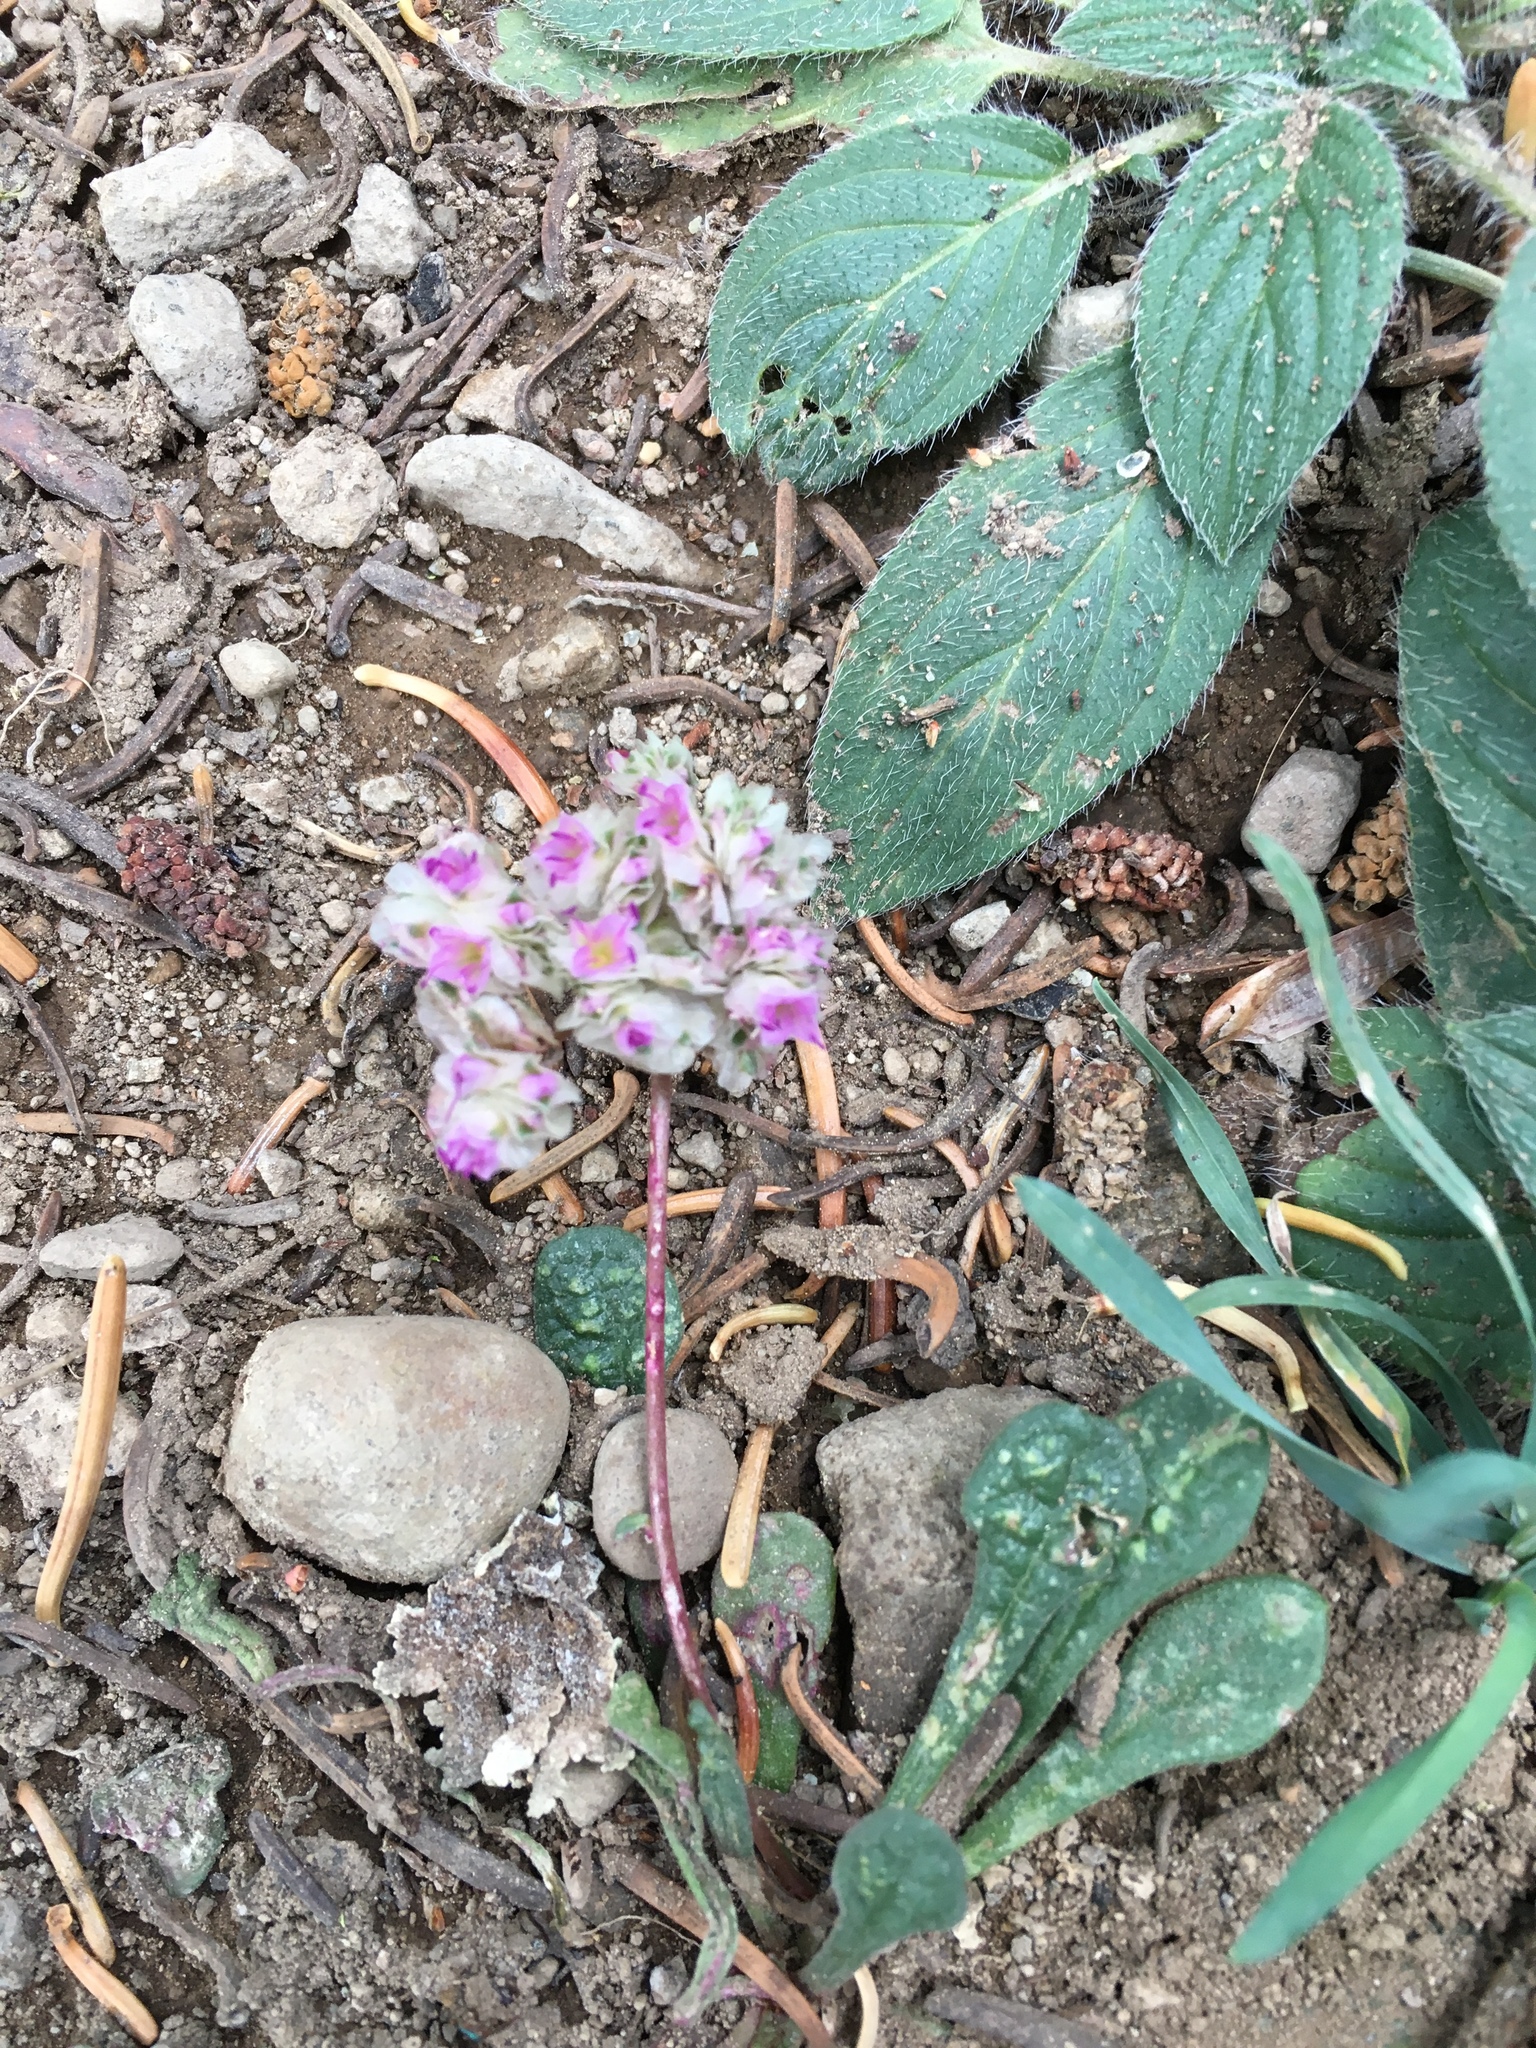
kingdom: Plantae
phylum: Tracheophyta
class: Magnoliopsida
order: Caryophyllales
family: Montiaceae
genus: Calyptridium
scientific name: Calyptridium monospermum
